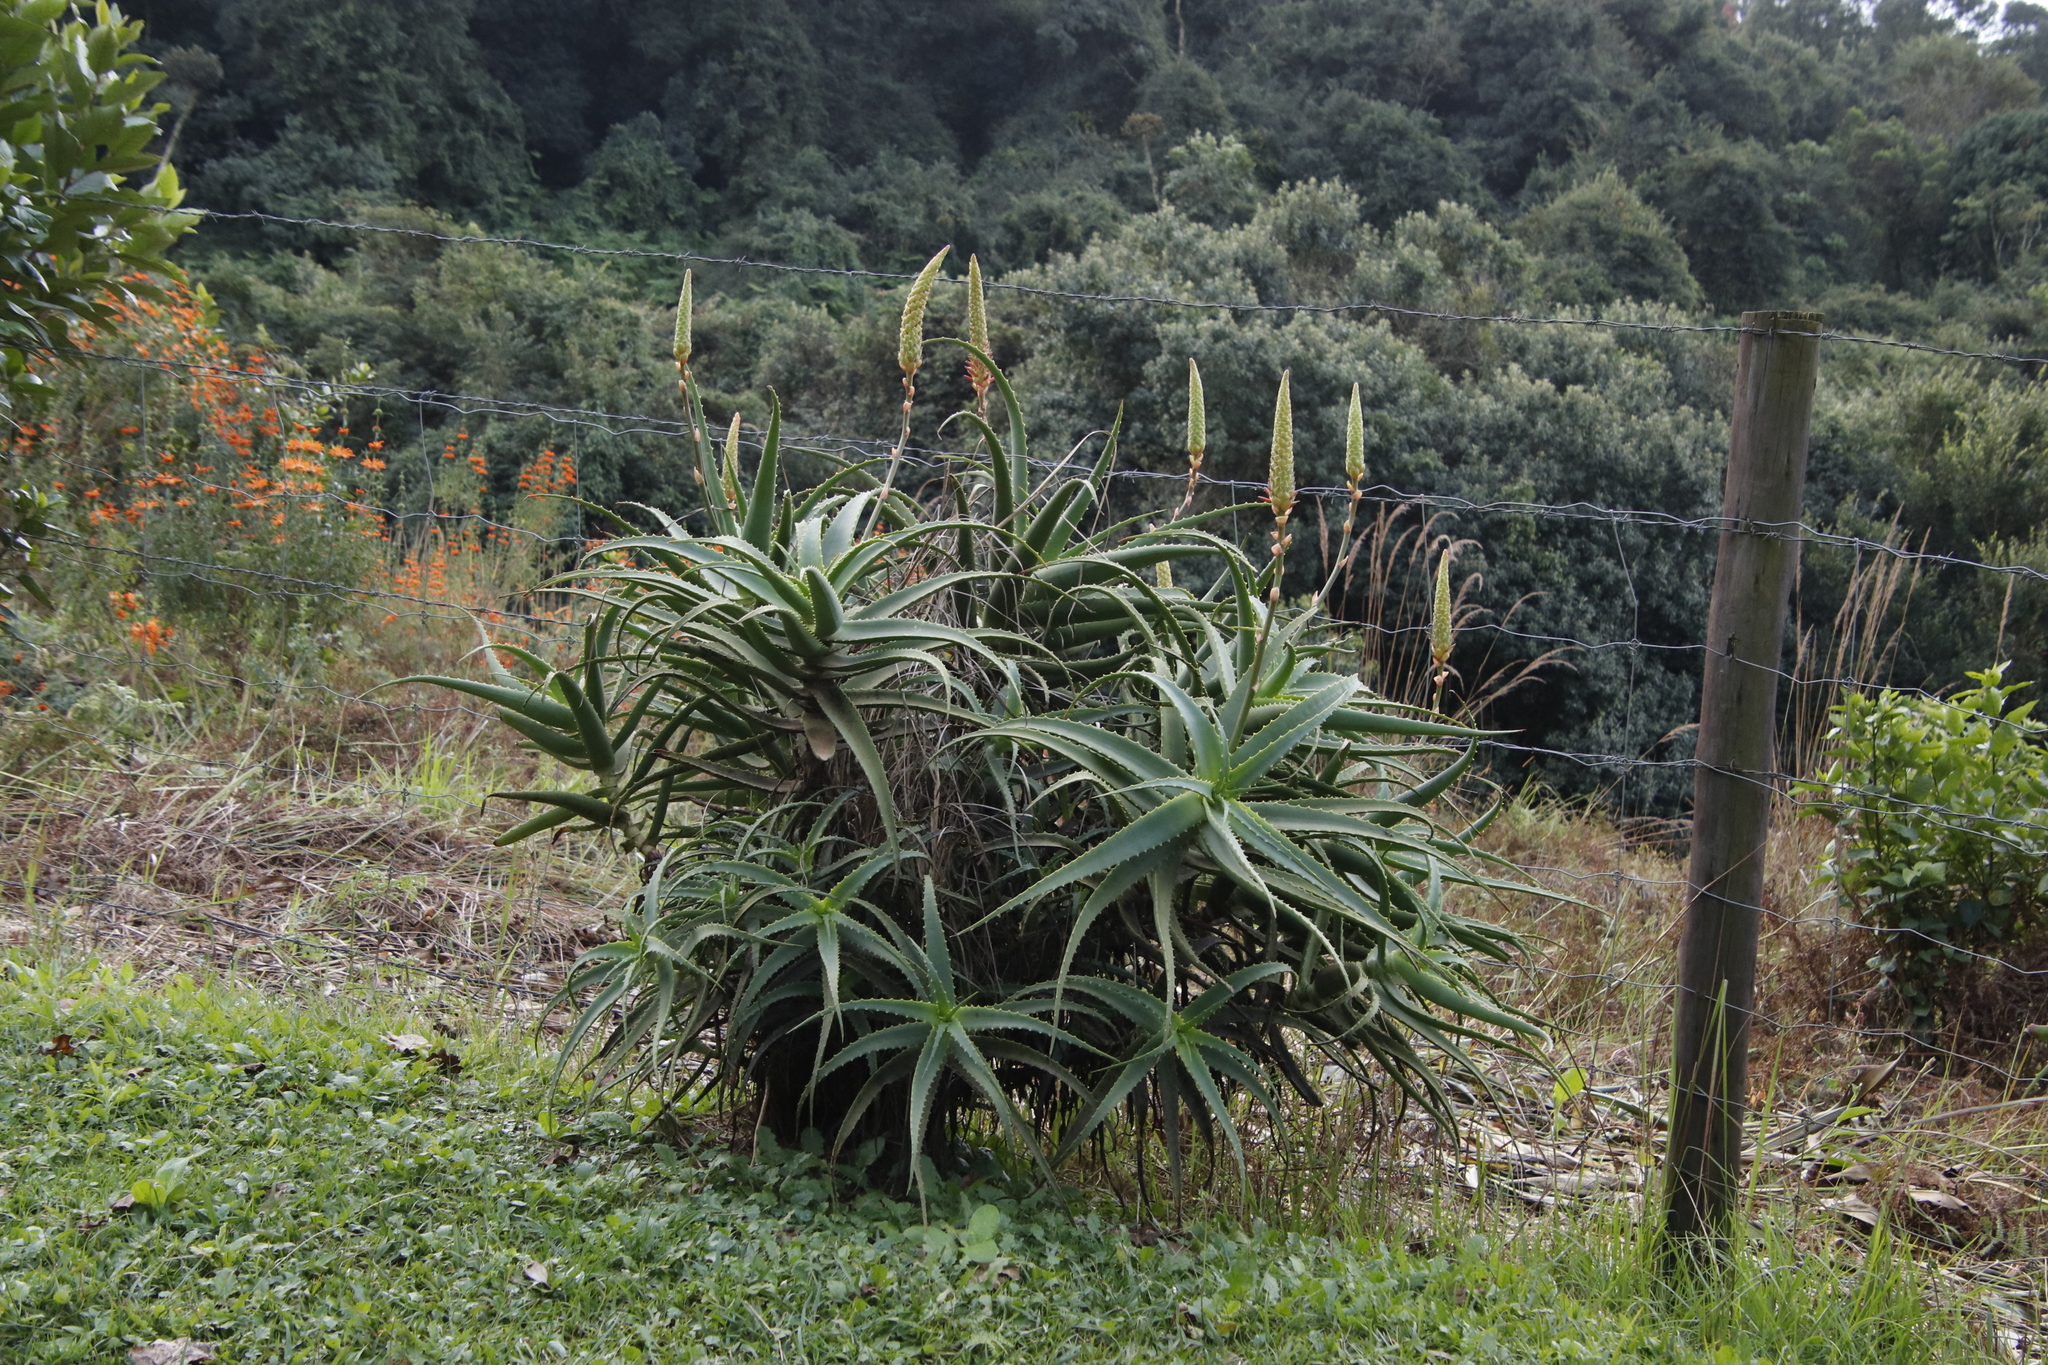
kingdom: Plantae
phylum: Tracheophyta
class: Liliopsida
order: Asparagales
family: Asphodelaceae
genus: Aloe
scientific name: Aloe arborescens
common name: Candelabra aloe
